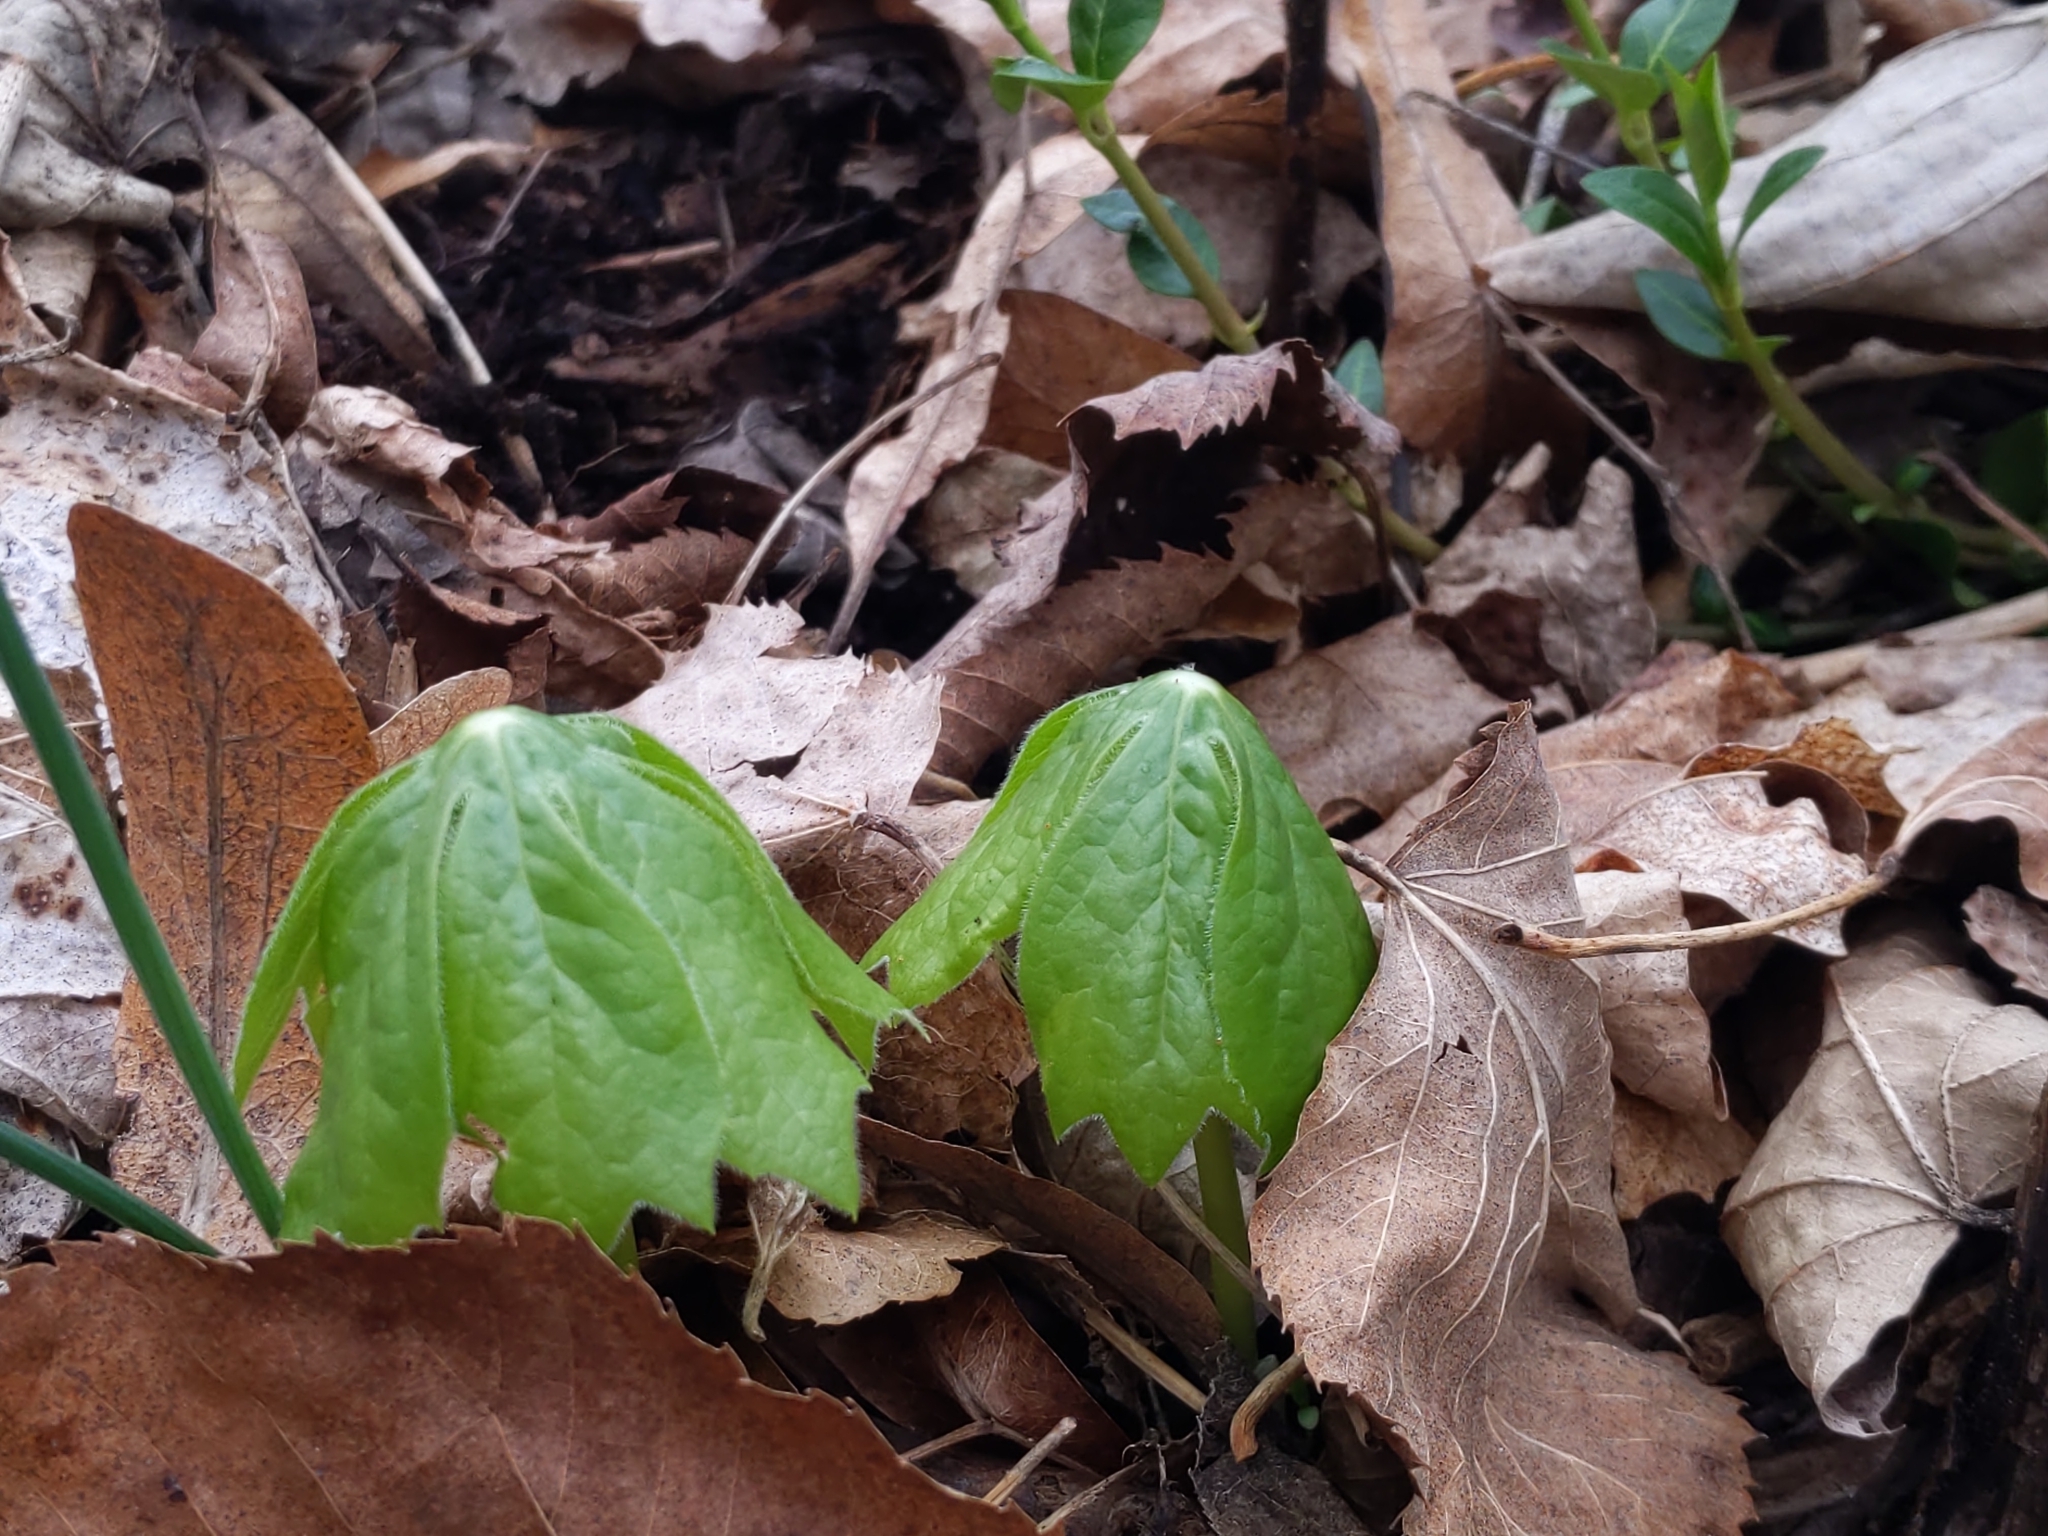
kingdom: Plantae
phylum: Tracheophyta
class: Magnoliopsida
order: Ranunculales
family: Berberidaceae
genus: Podophyllum
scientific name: Podophyllum peltatum
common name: Wild mandrake
